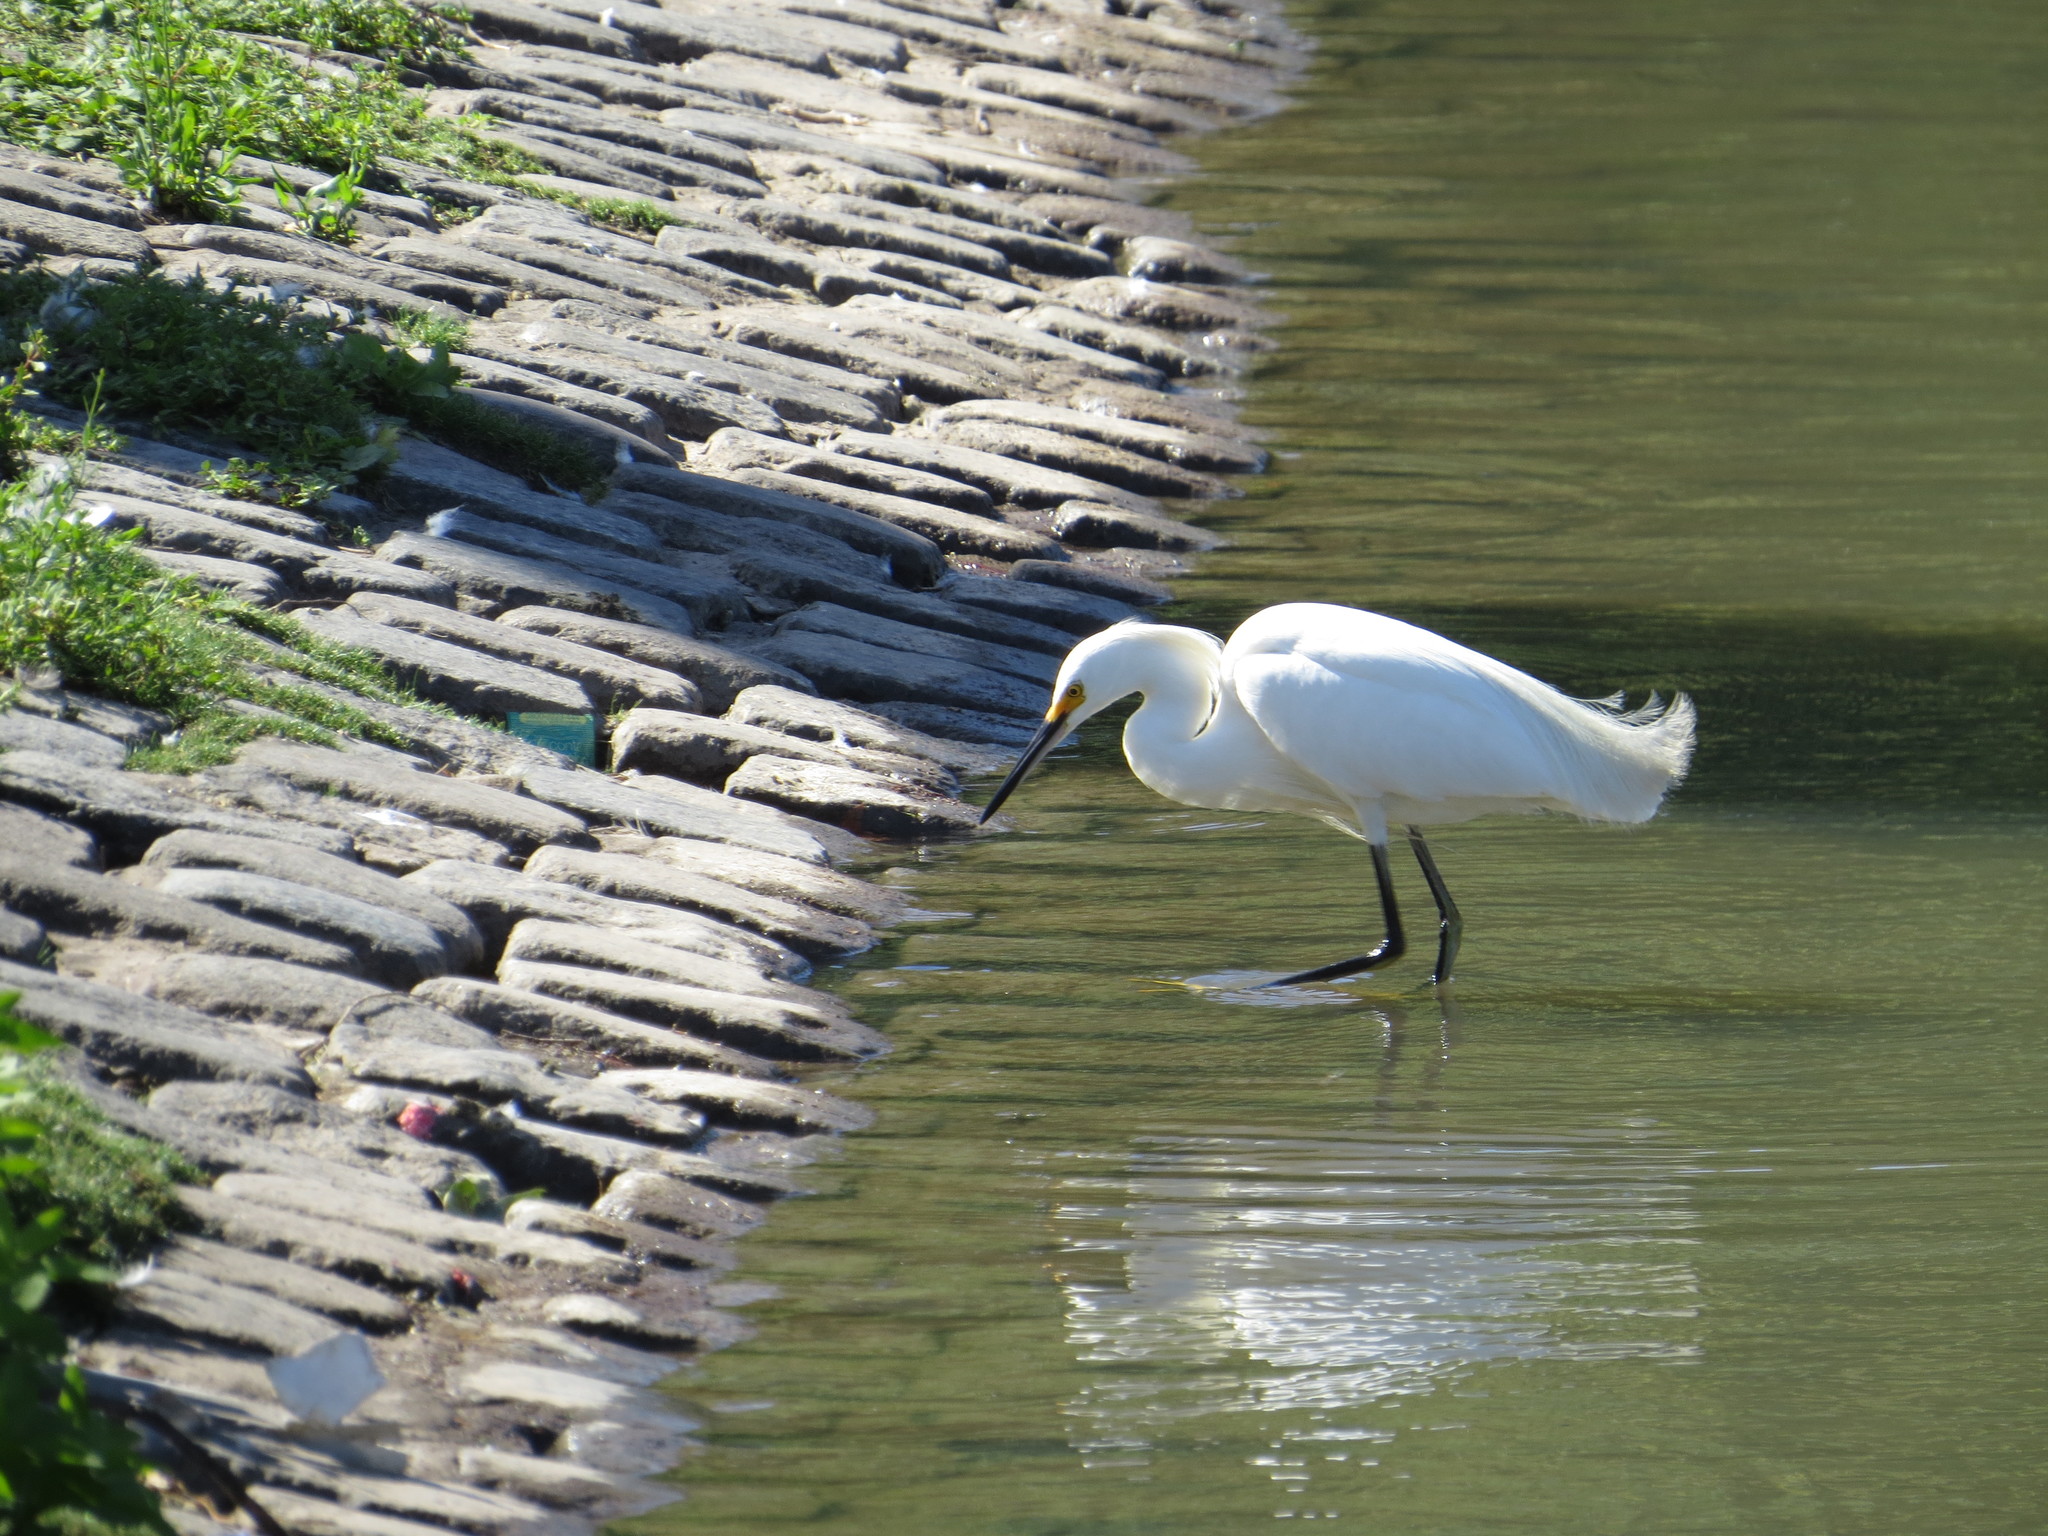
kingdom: Animalia
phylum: Chordata
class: Aves
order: Pelecaniformes
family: Ardeidae
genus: Egretta
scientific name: Egretta thula
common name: Snowy egret
